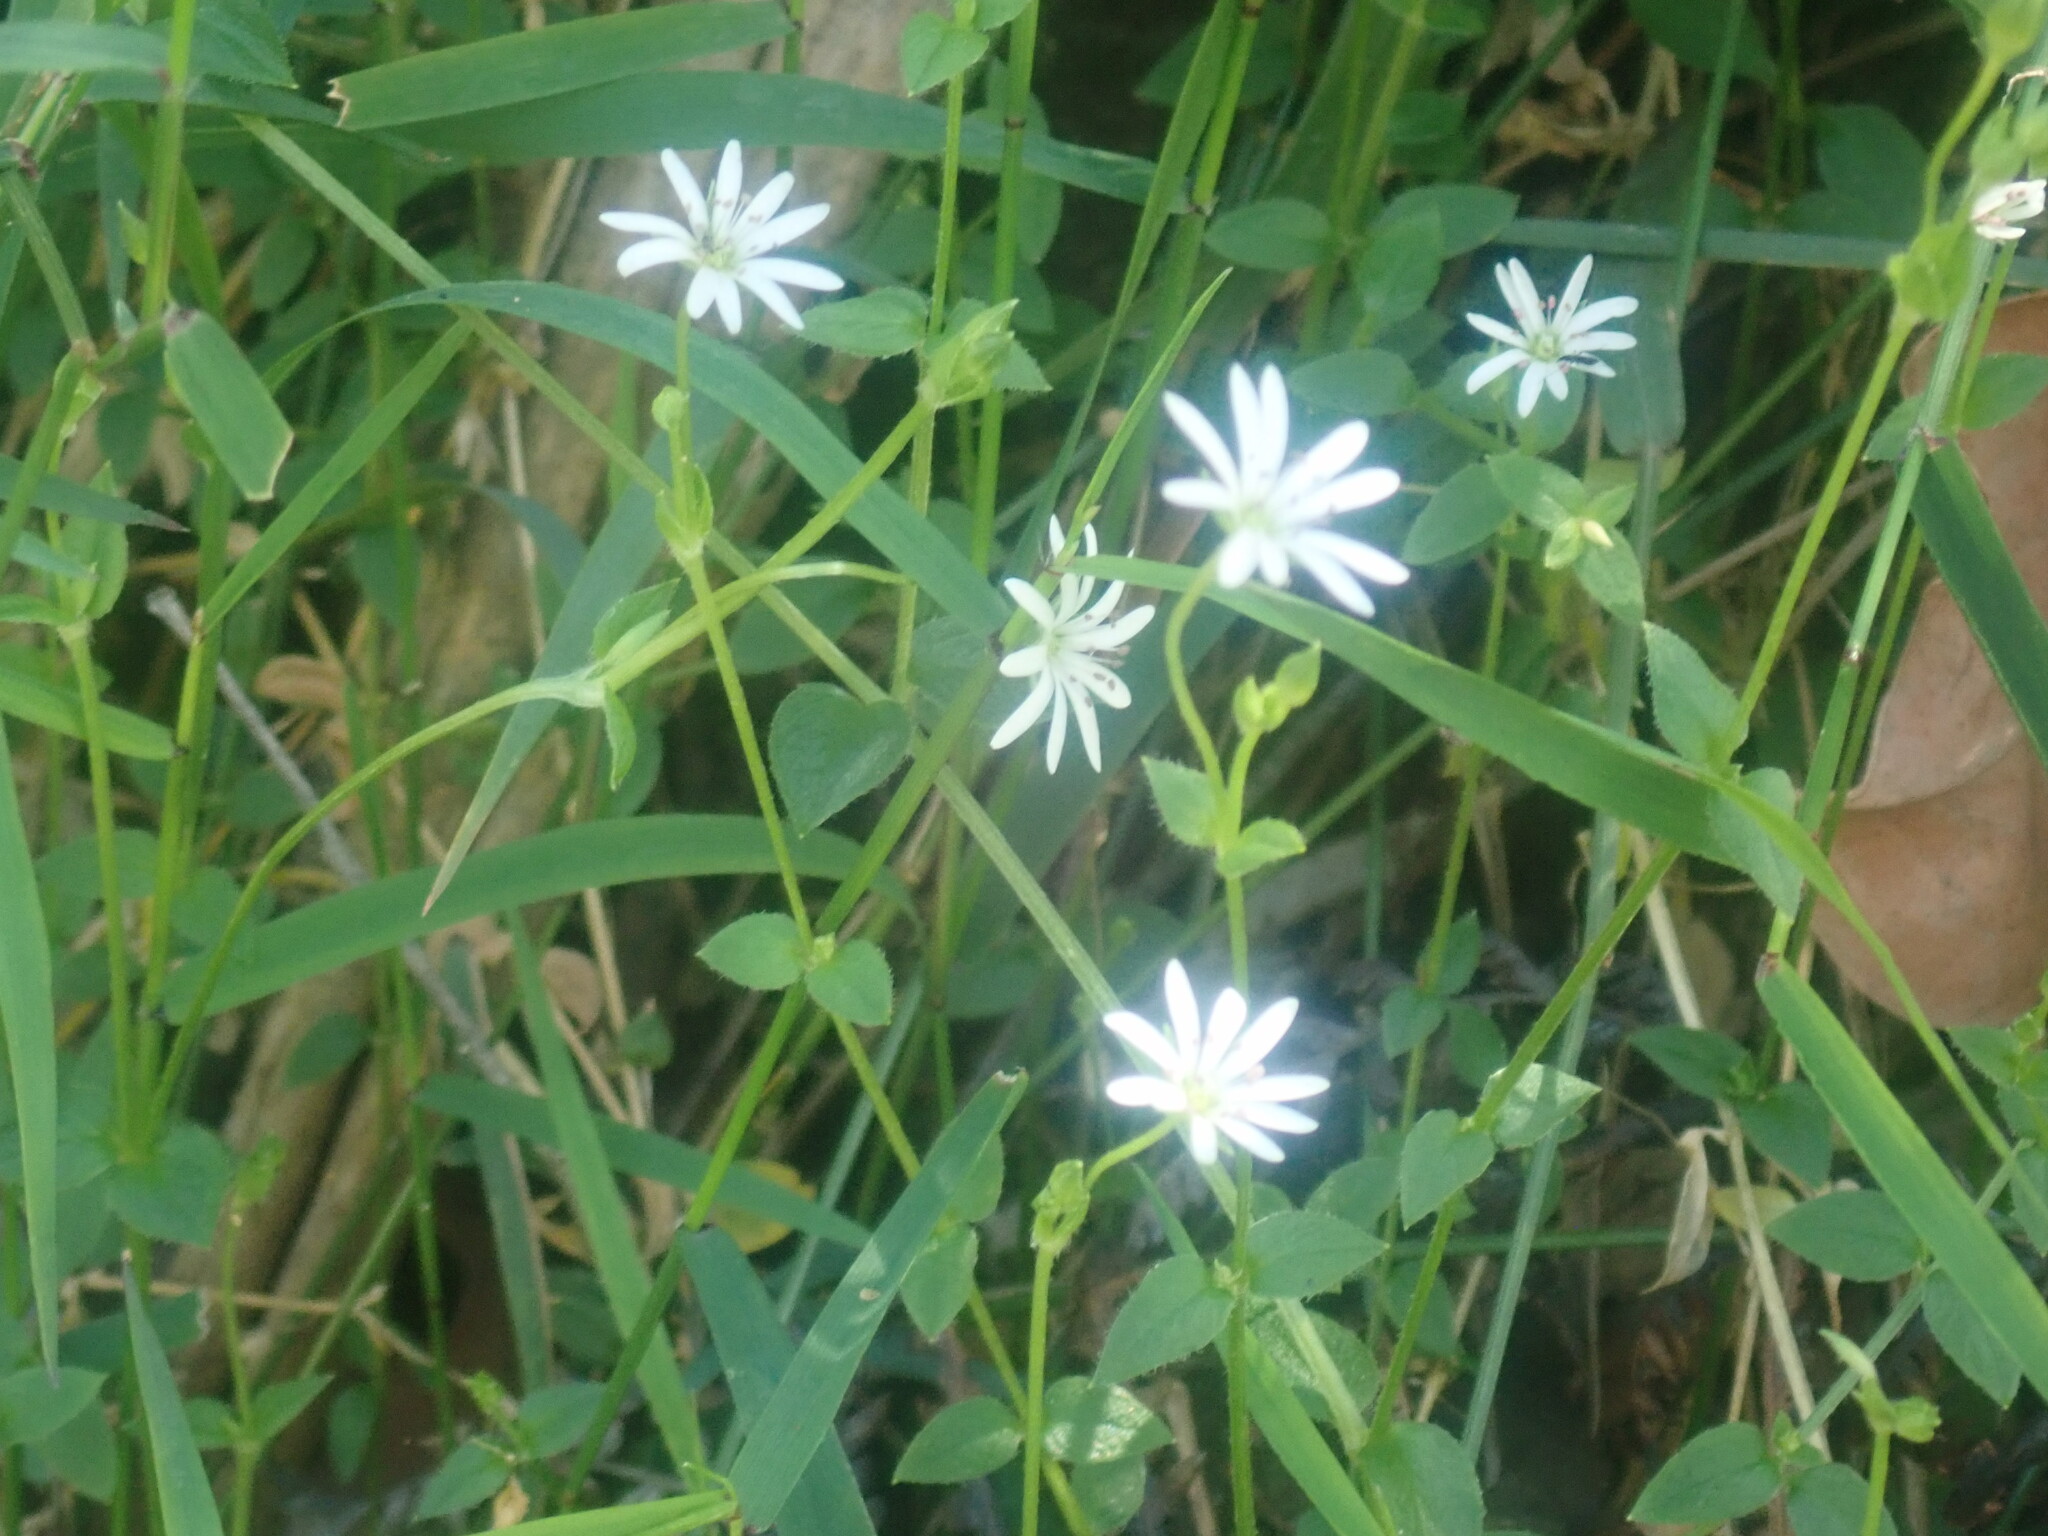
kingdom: Plantae
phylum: Tracheophyta
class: Magnoliopsida
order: Caryophyllales
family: Caryophyllaceae
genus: Stellaria
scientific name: Stellaria flaccida
